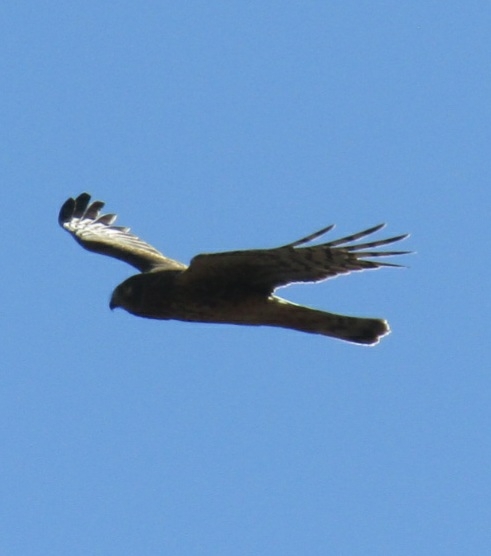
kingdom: Animalia
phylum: Chordata
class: Aves
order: Accipitriformes
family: Accipitridae
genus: Circus
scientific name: Circus cyaneus
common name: Hen harrier
